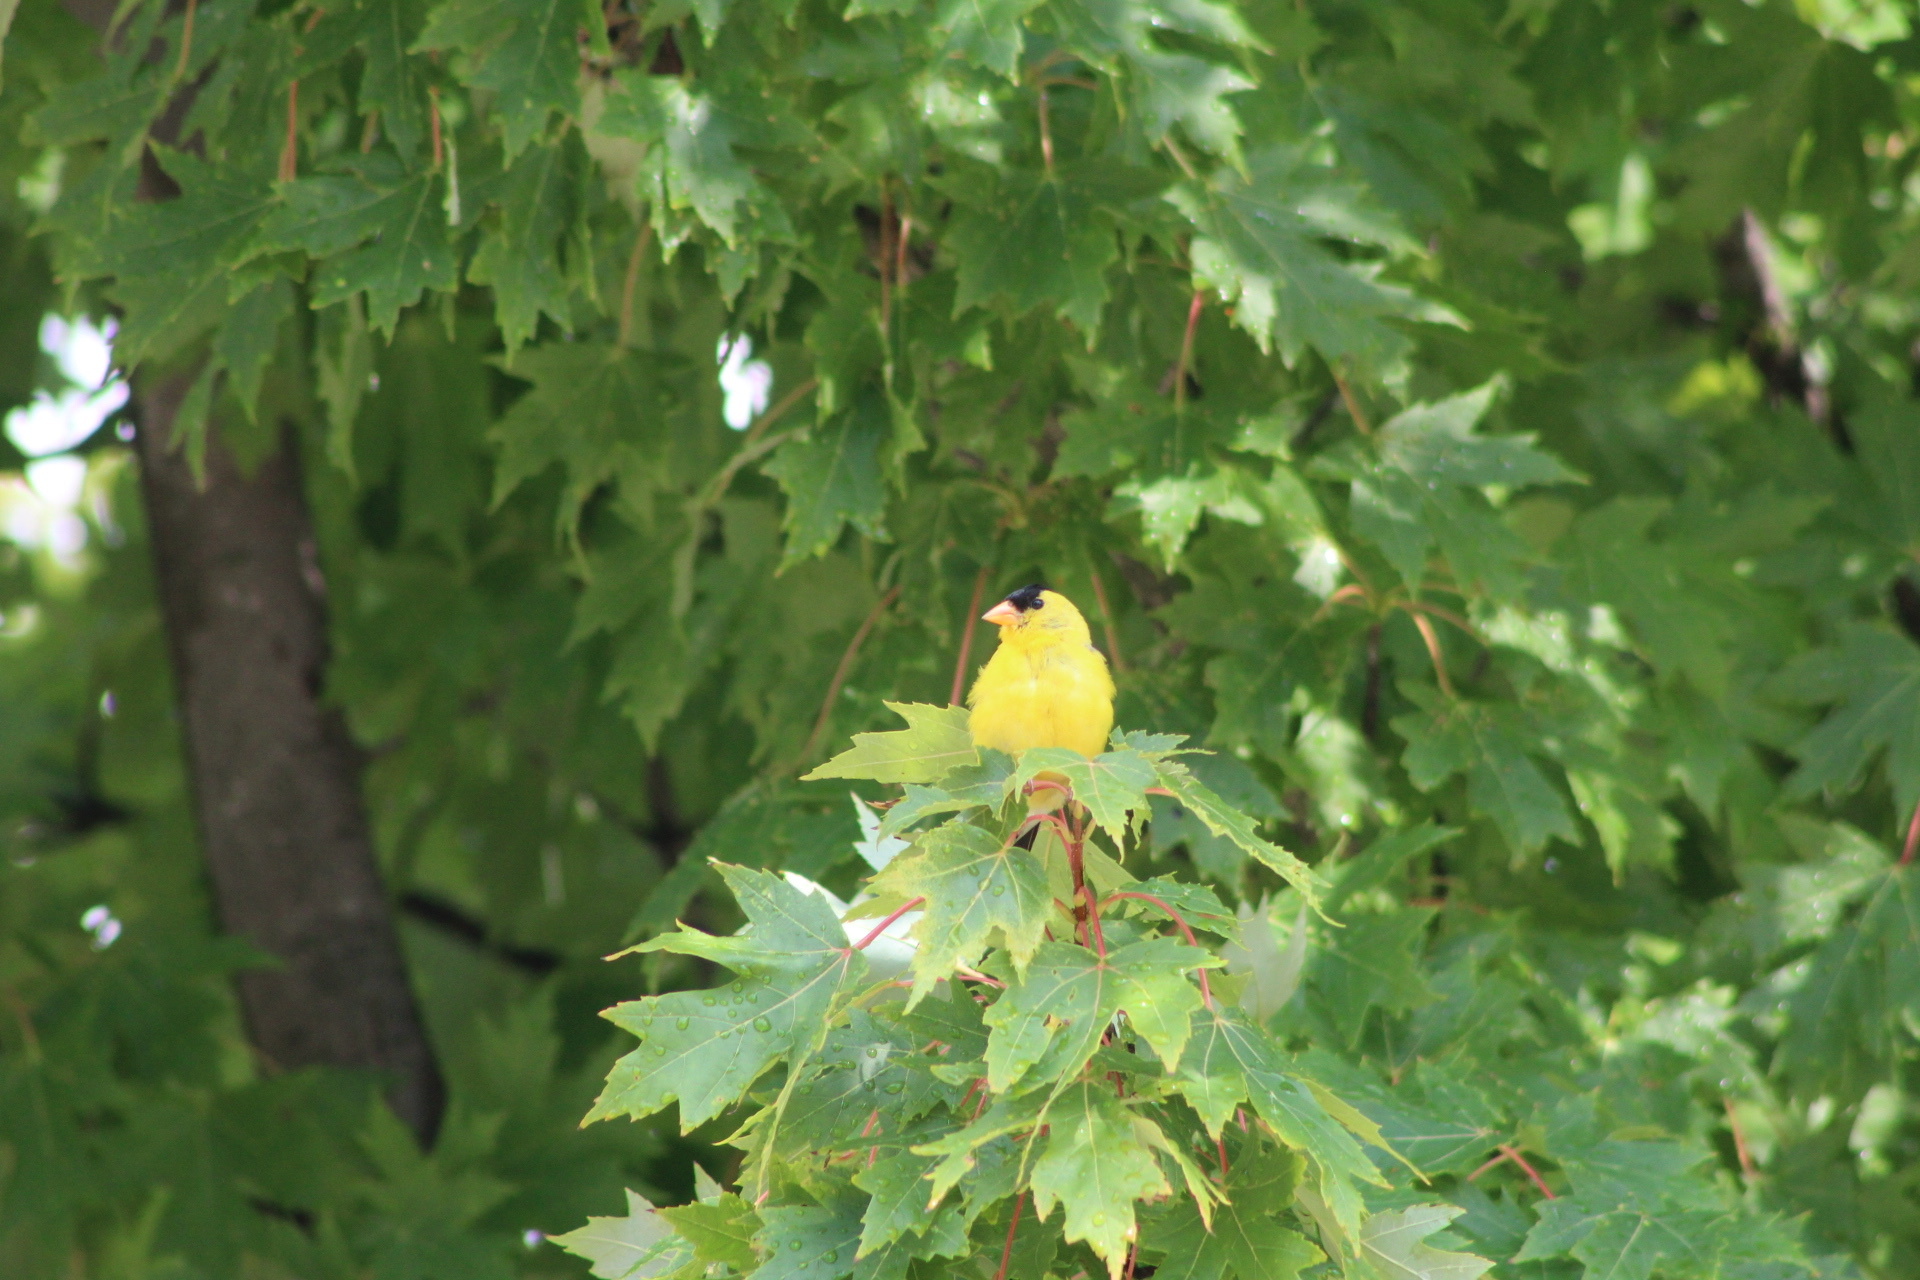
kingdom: Animalia
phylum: Chordata
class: Aves
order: Passeriformes
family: Fringillidae
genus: Spinus
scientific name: Spinus tristis
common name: American goldfinch
